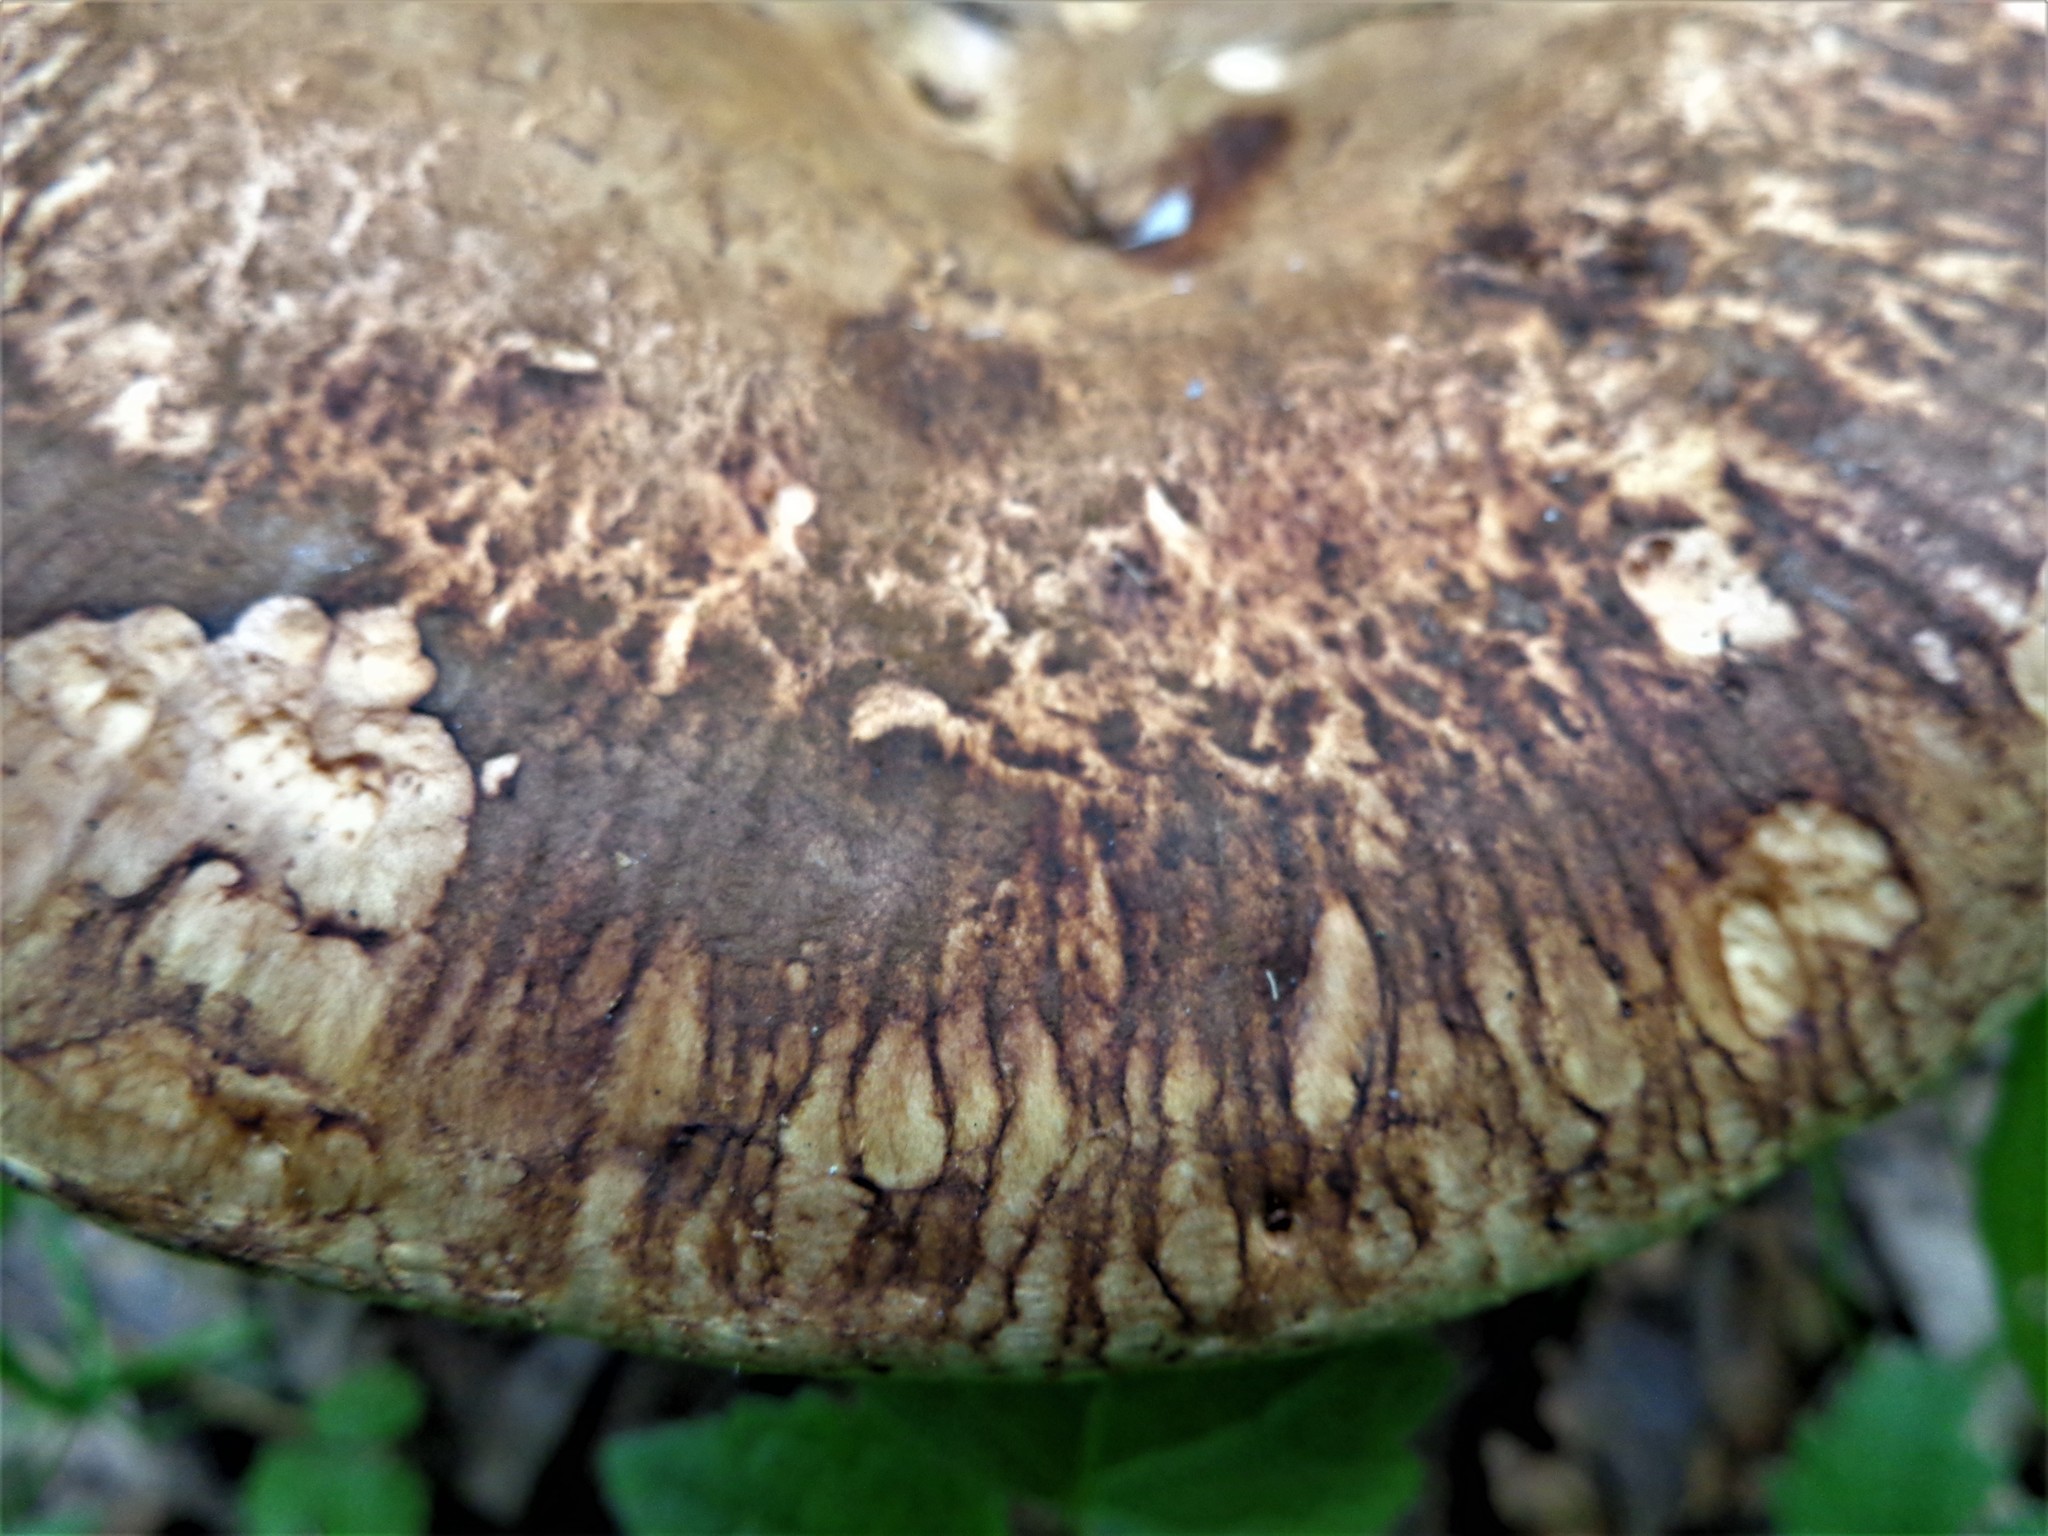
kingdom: Fungi
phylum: Basidiomycota
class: Agaricomycetes
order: Boletales
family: Paxillaceae
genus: Paxillus
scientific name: Paxillus involutus
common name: Brown roll rim
